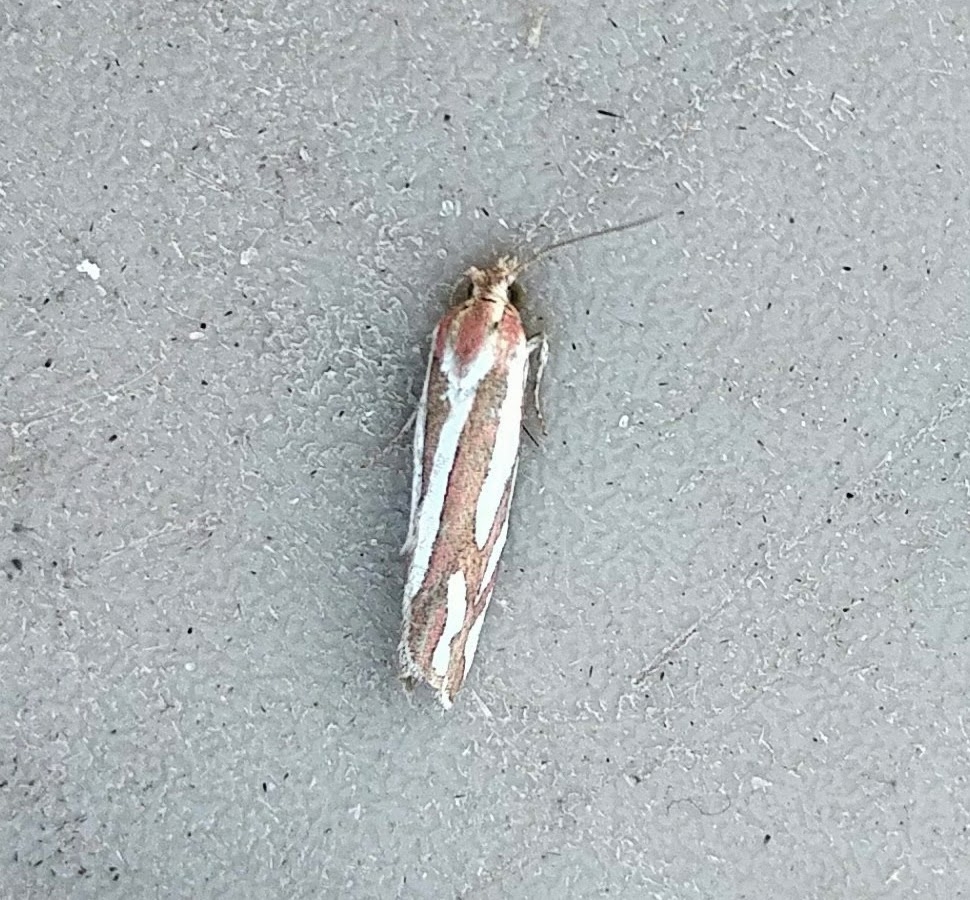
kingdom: Animalia
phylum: Arthropoda
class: Insecta
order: Lepidoptera
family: Tortricidae
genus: Pelochrista
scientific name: Pelochrista fernaldana
